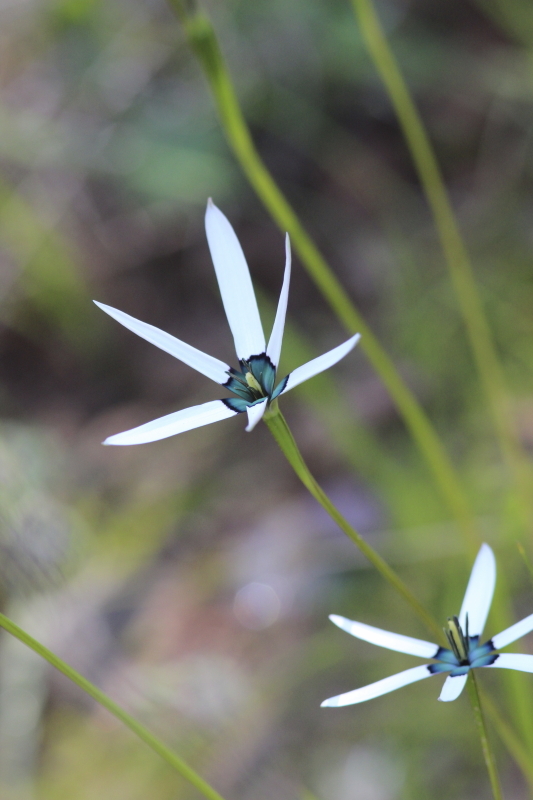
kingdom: Plantae
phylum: Tracheophyta
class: Liliopsida
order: Asparagales
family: Hypoxidaceae
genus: Pauridia
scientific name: Pauridia capensis
